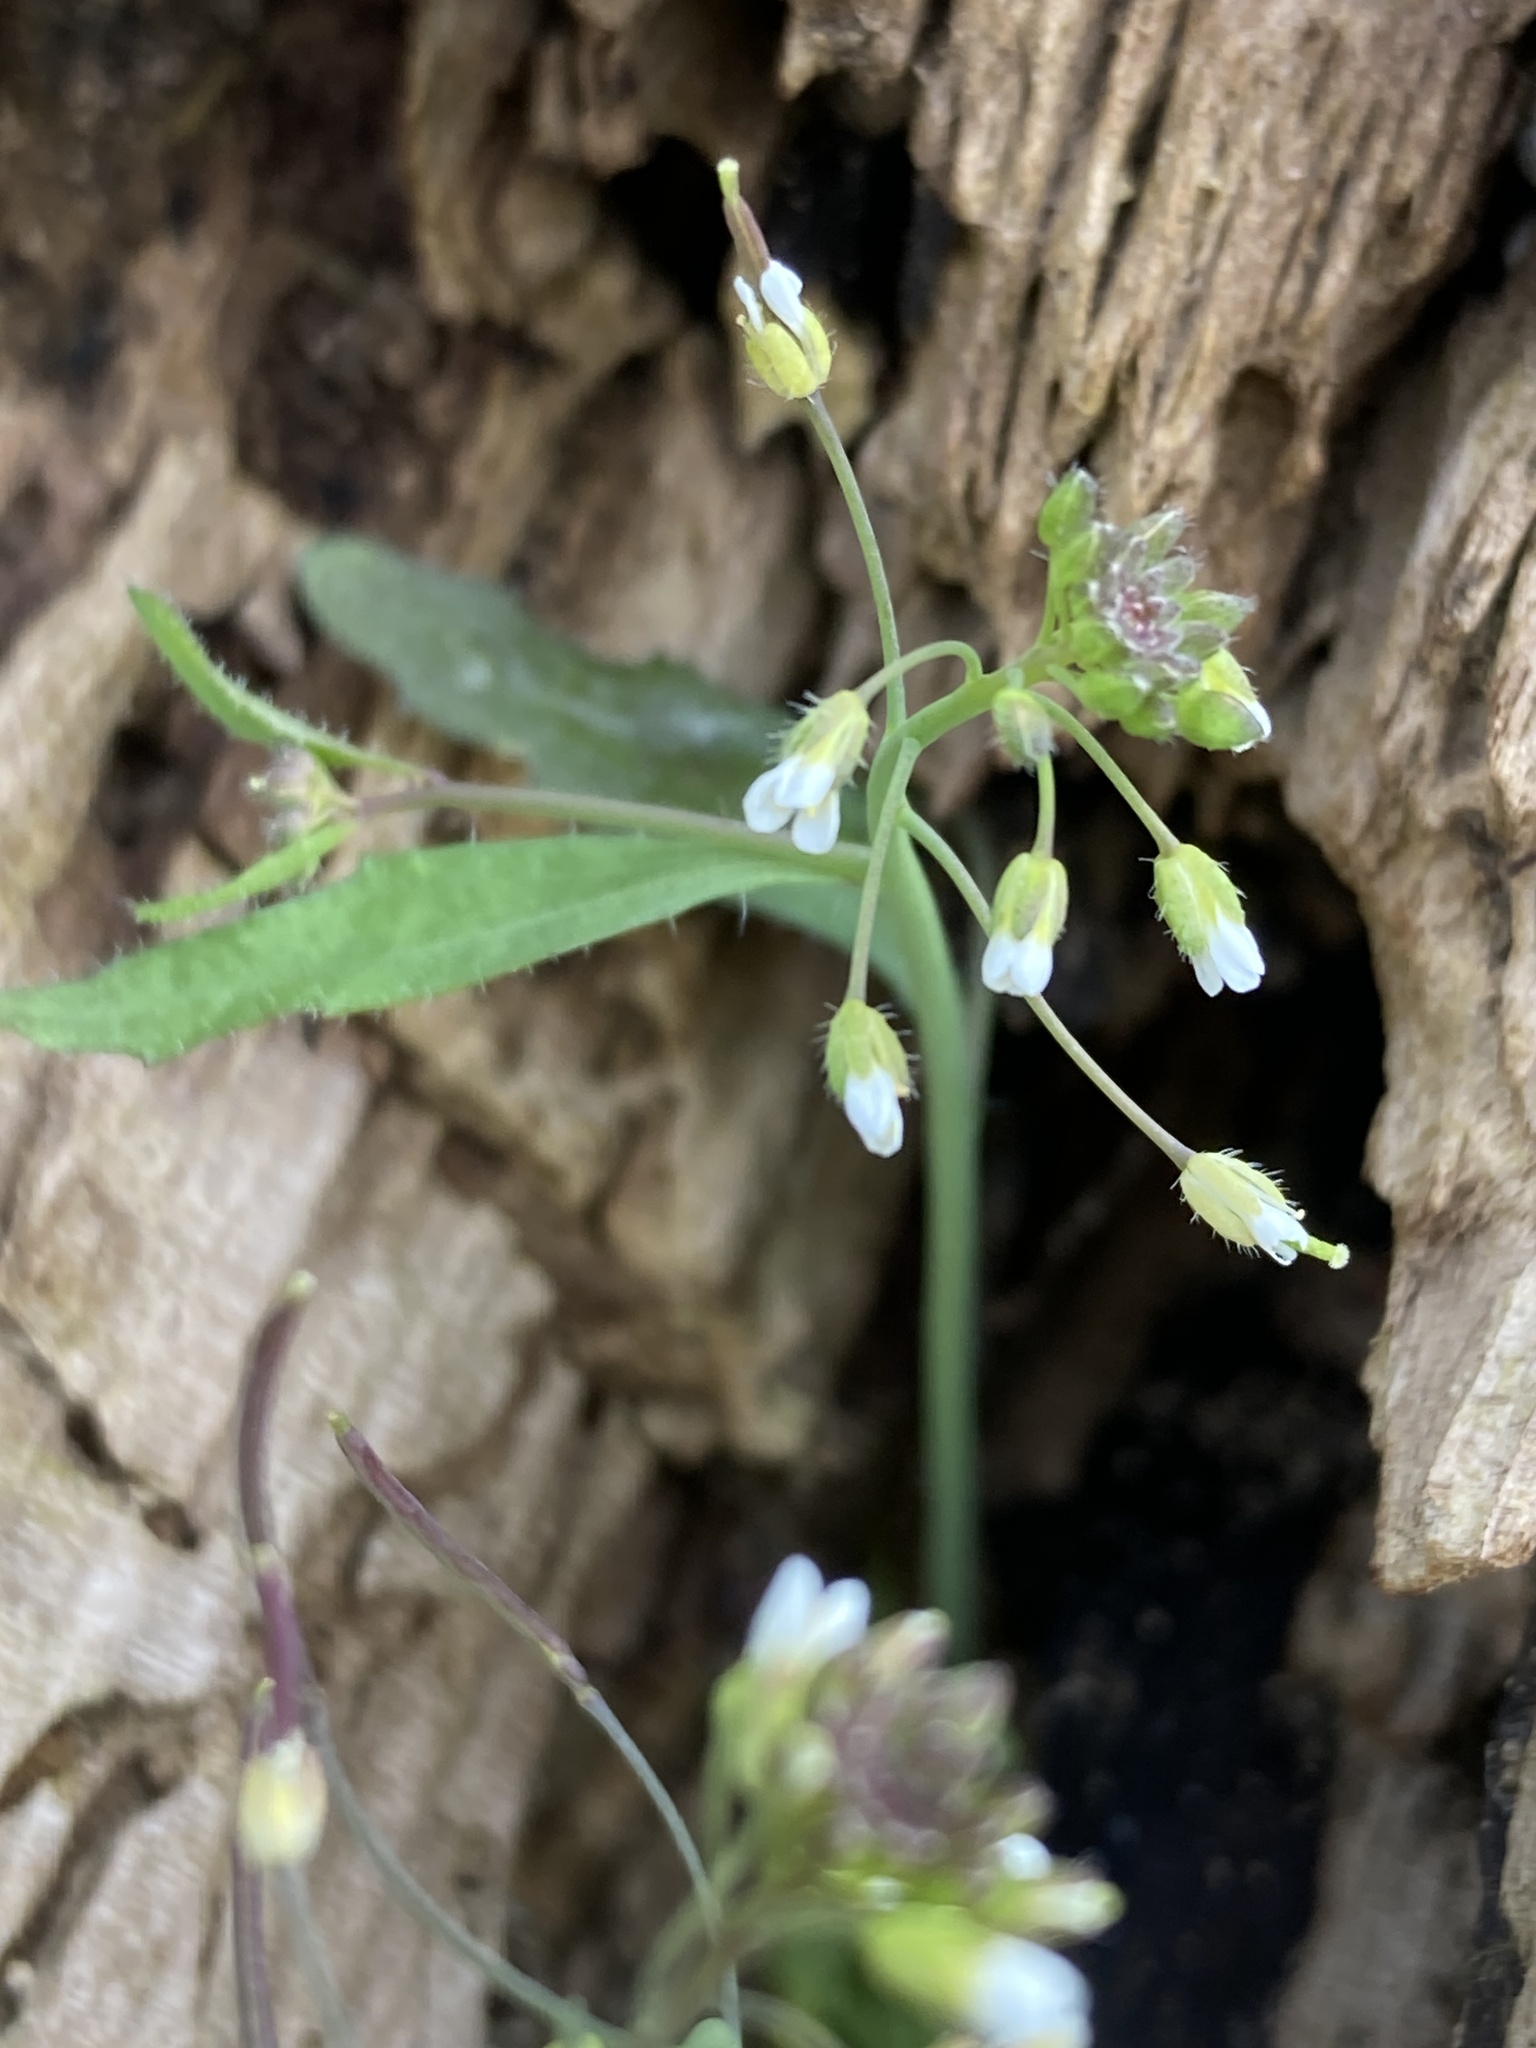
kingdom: Plantae
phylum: Tracheophyta
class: Magnoliopsida
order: Brassicales
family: Brassicaceae
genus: Arabidopsis
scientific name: Arabidopsis thaliana
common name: Thale cress
